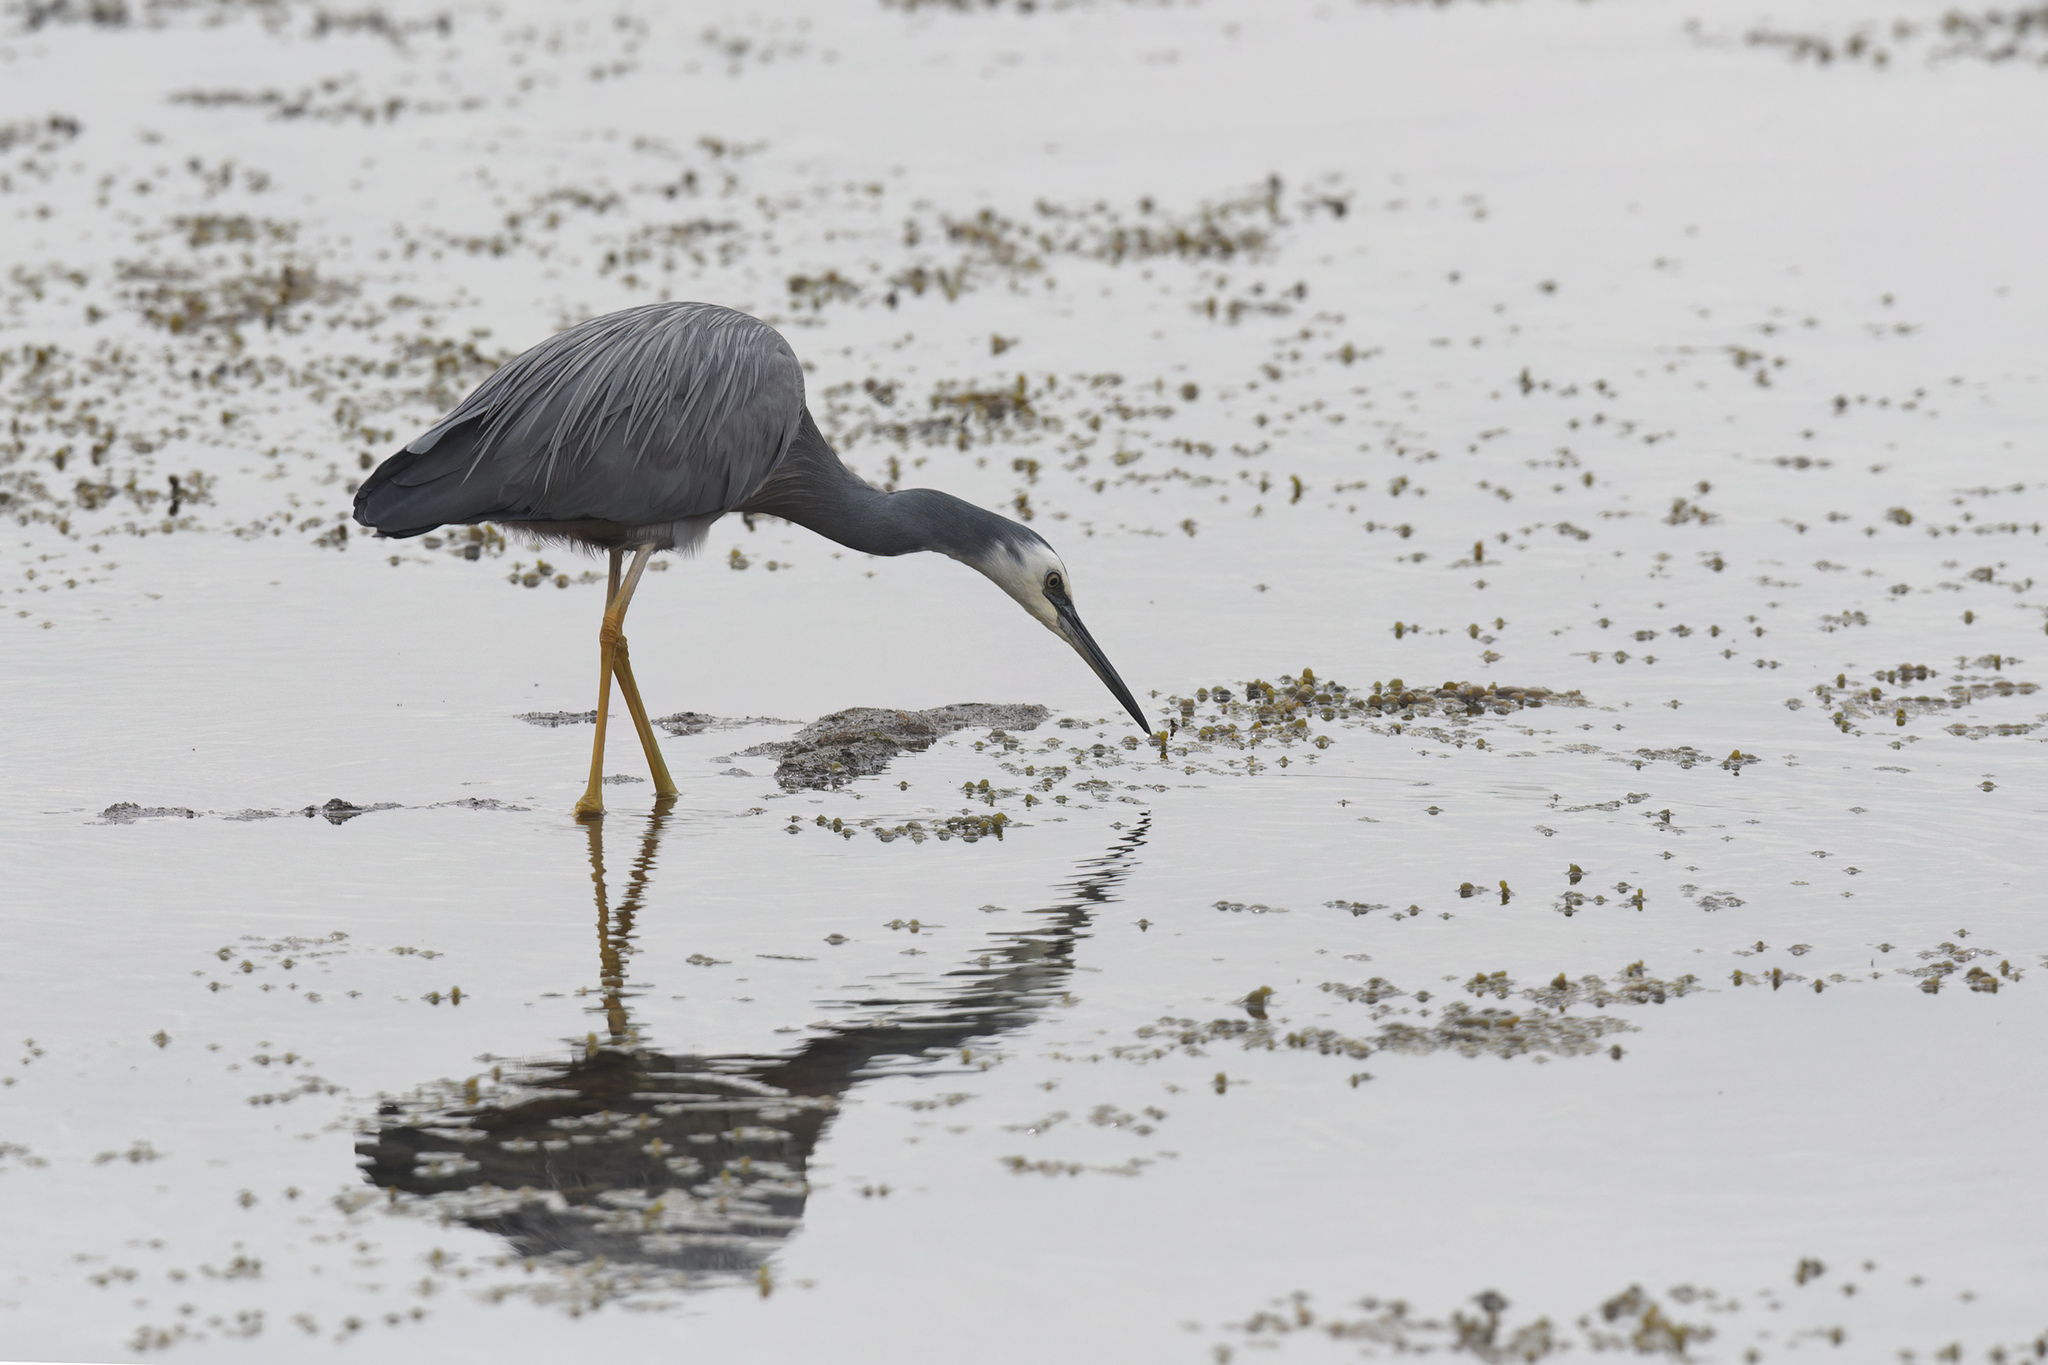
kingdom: Animalia
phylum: Chordata
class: Aves
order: Pelecaniformes
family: Ardeidae
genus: Egretta
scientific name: Egretta novaehollandiae
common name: White-faced heron
